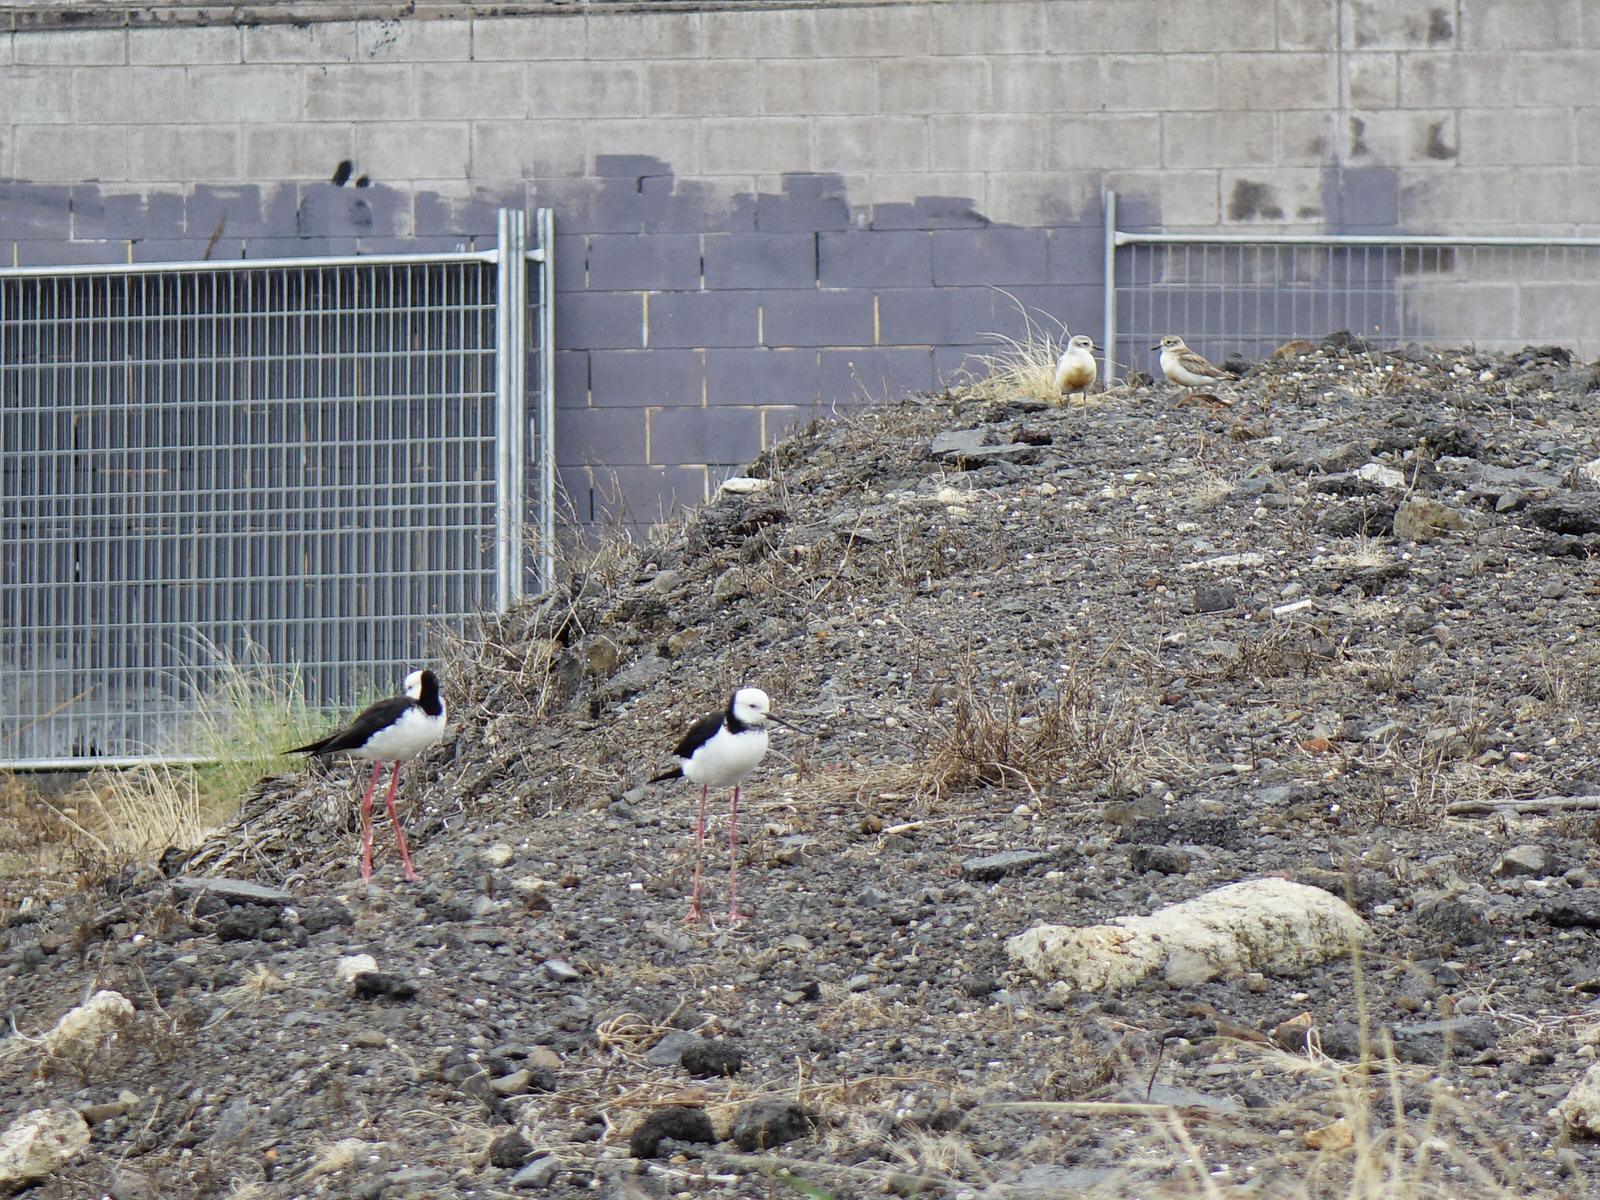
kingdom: Animalia
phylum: Chordata
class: Aves
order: Charadriiformes
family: Charadriidae
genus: Anarhynchus
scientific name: Anarhynchus
